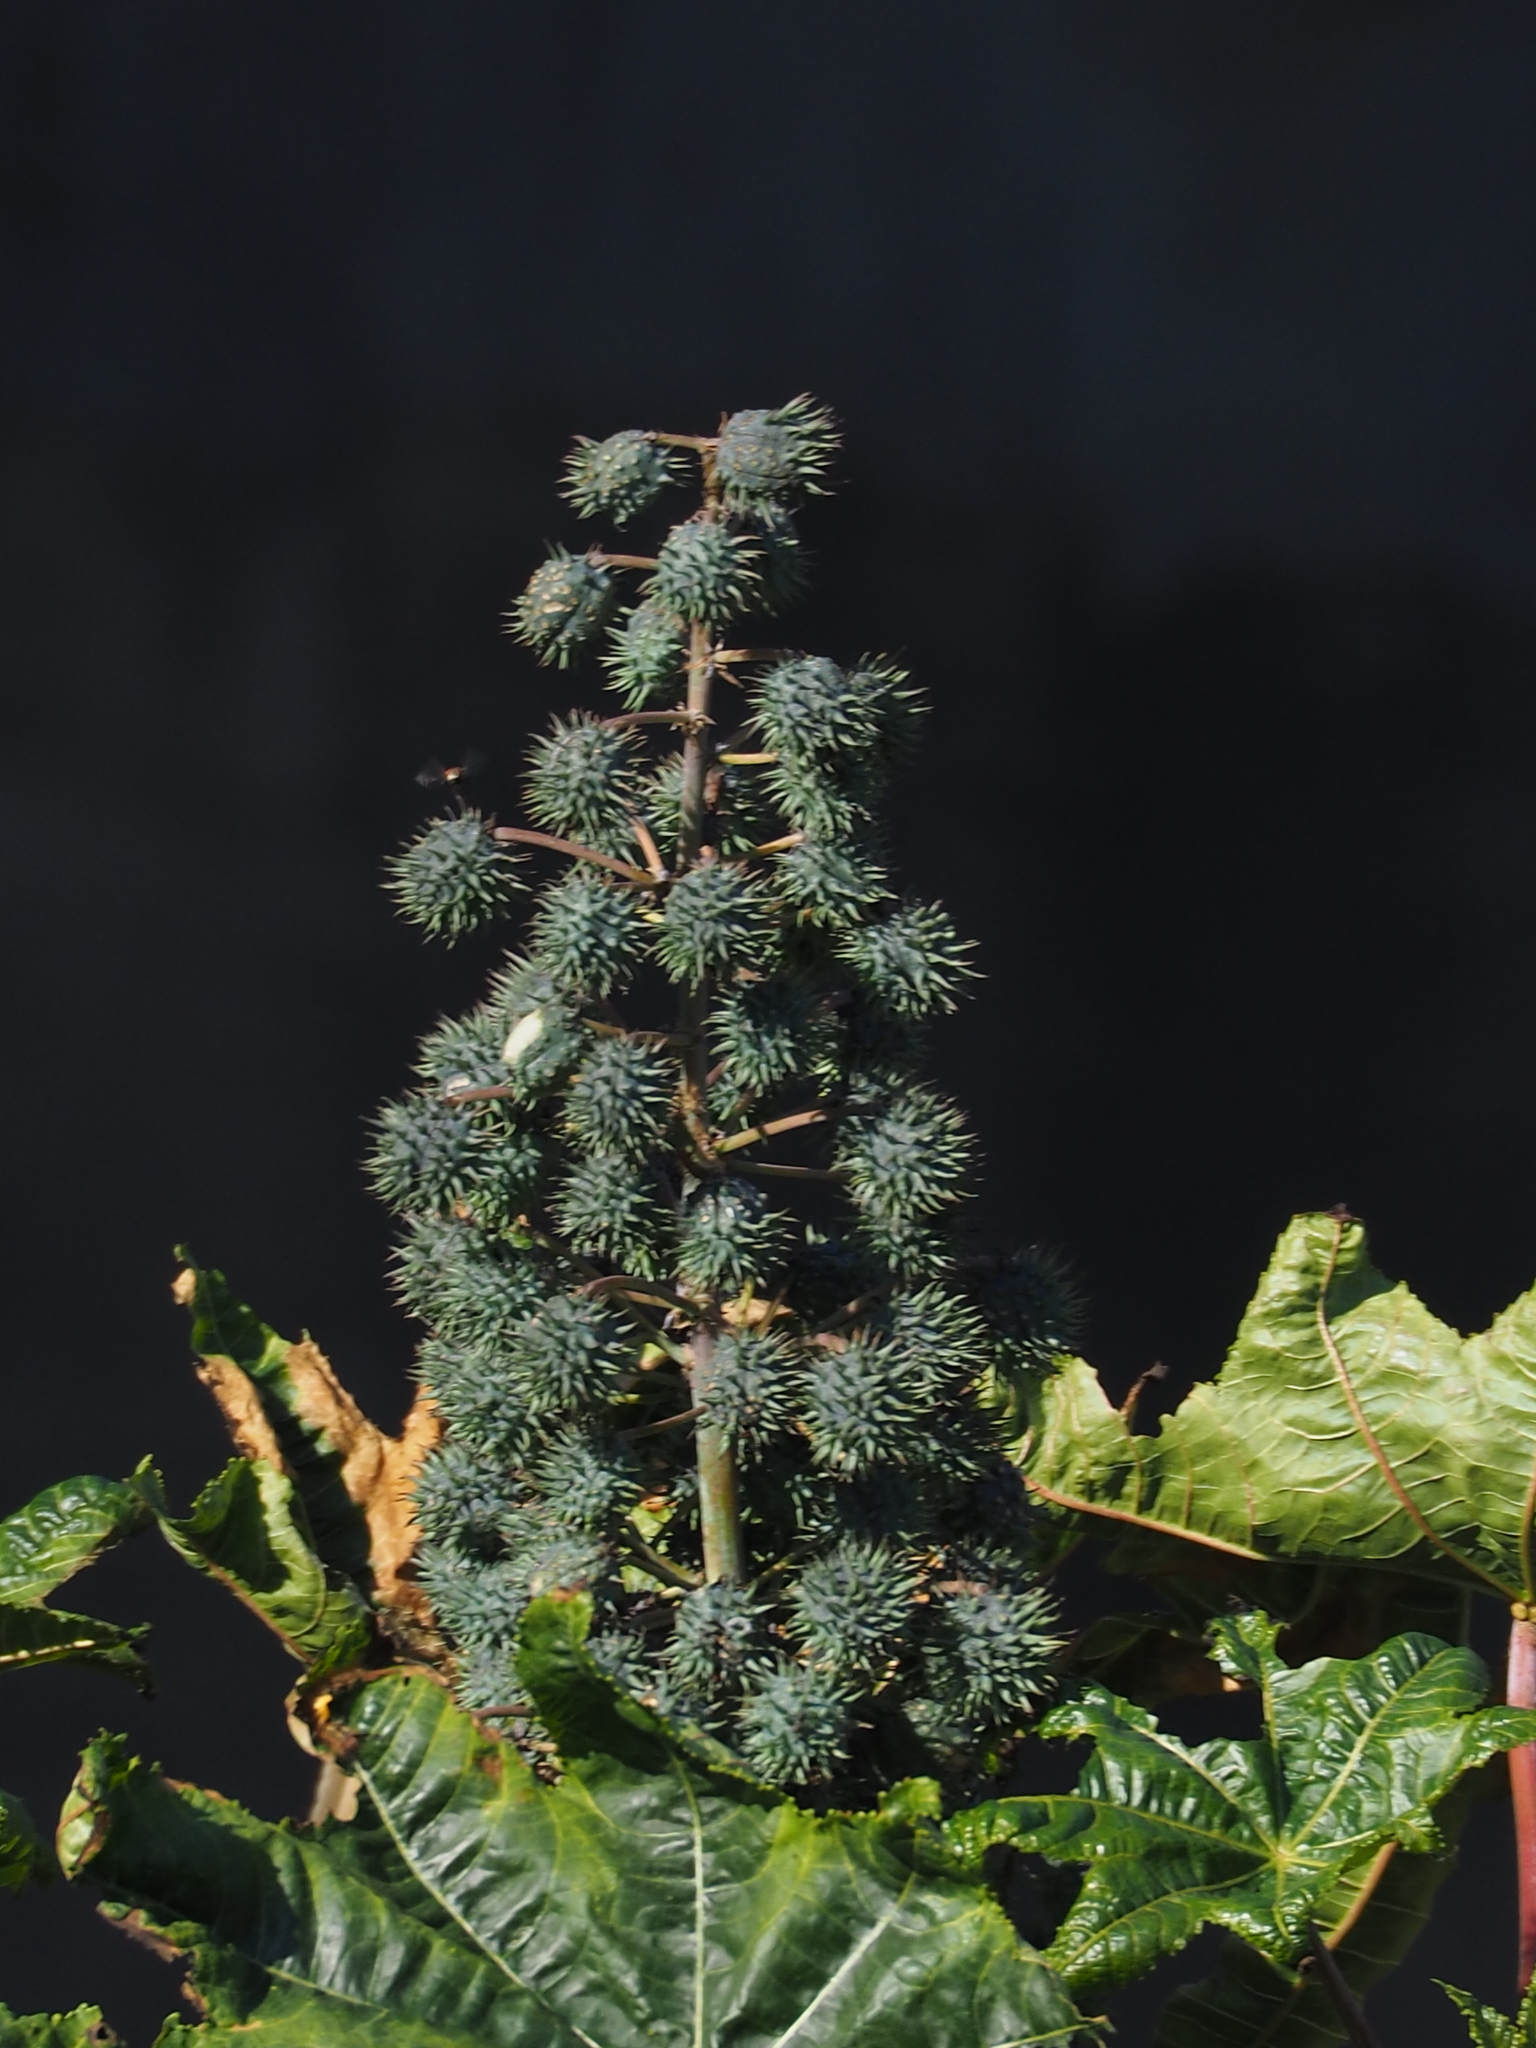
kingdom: Plantae
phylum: Tracheophyta
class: Magnoliopsida
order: Malpighiales
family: Euphorbiaceae
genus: Ricinus
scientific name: Ricinus communis
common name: Castor-oil-plant
